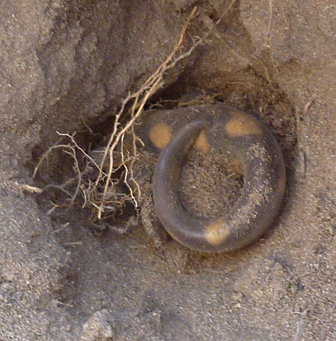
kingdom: Animalia
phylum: Chordata
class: Amphibia
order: Caudata
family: Ambystomatidae
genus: Ambystoma
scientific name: Ambystoma tigrinum
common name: Tiger salamander
